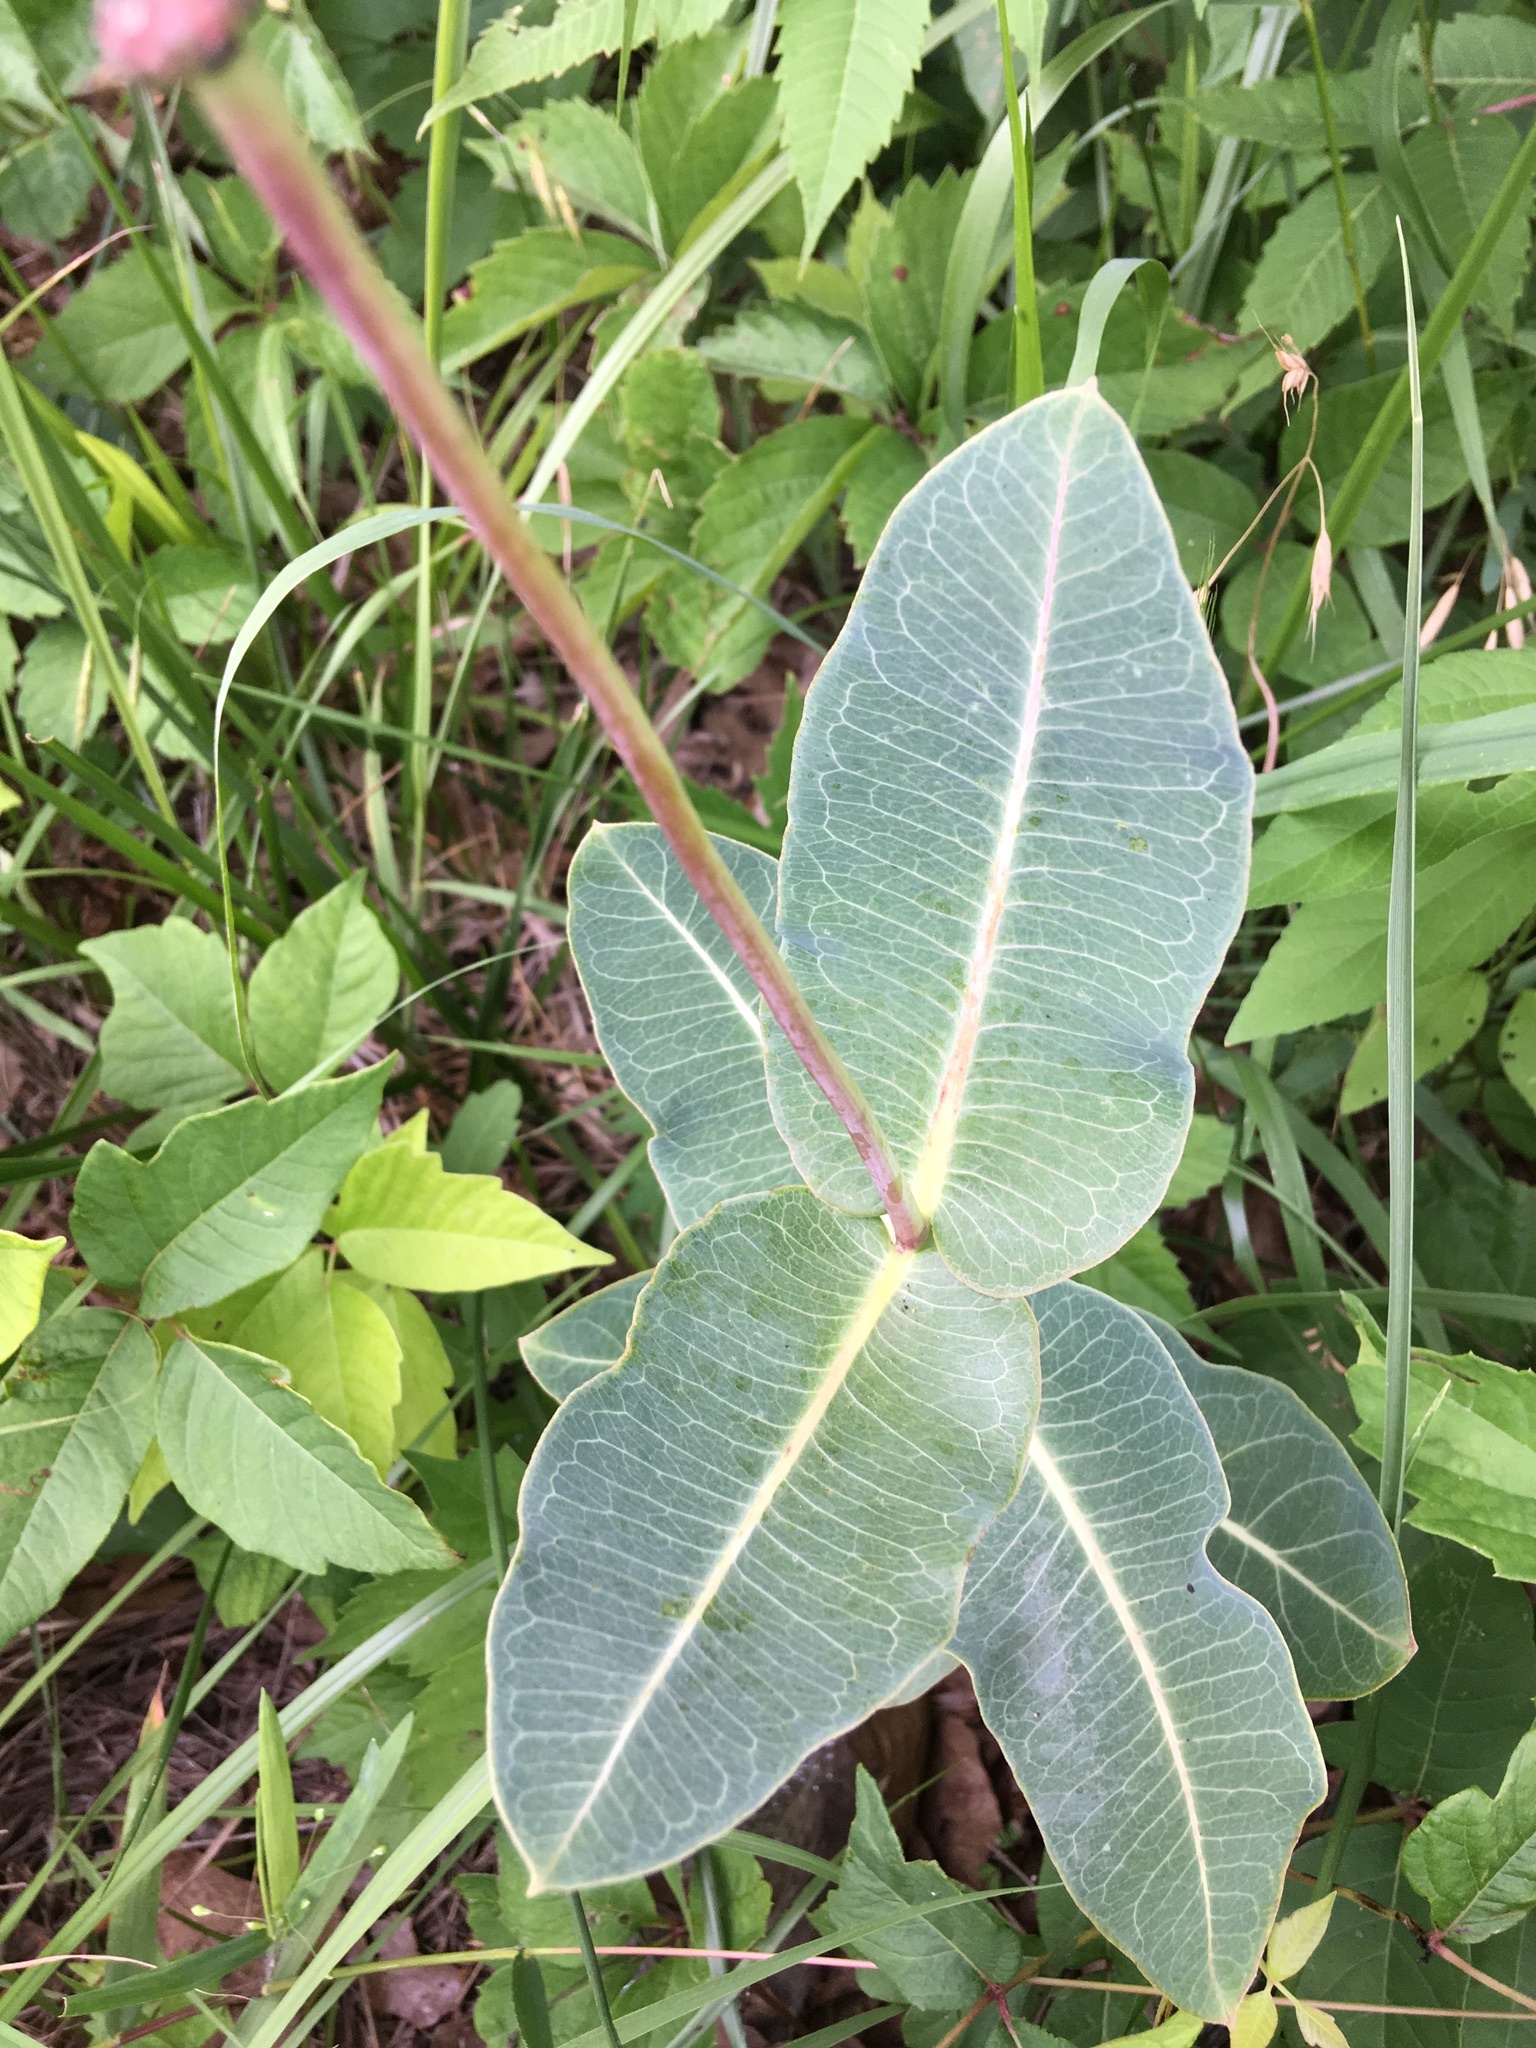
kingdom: Plantae
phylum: Tracheophyta
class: Magnoliopsida
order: Gentianales
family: Apocynaceae
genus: Asclepias
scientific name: Asclepias amplexicaulis
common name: Blunt-leaf milkweed
